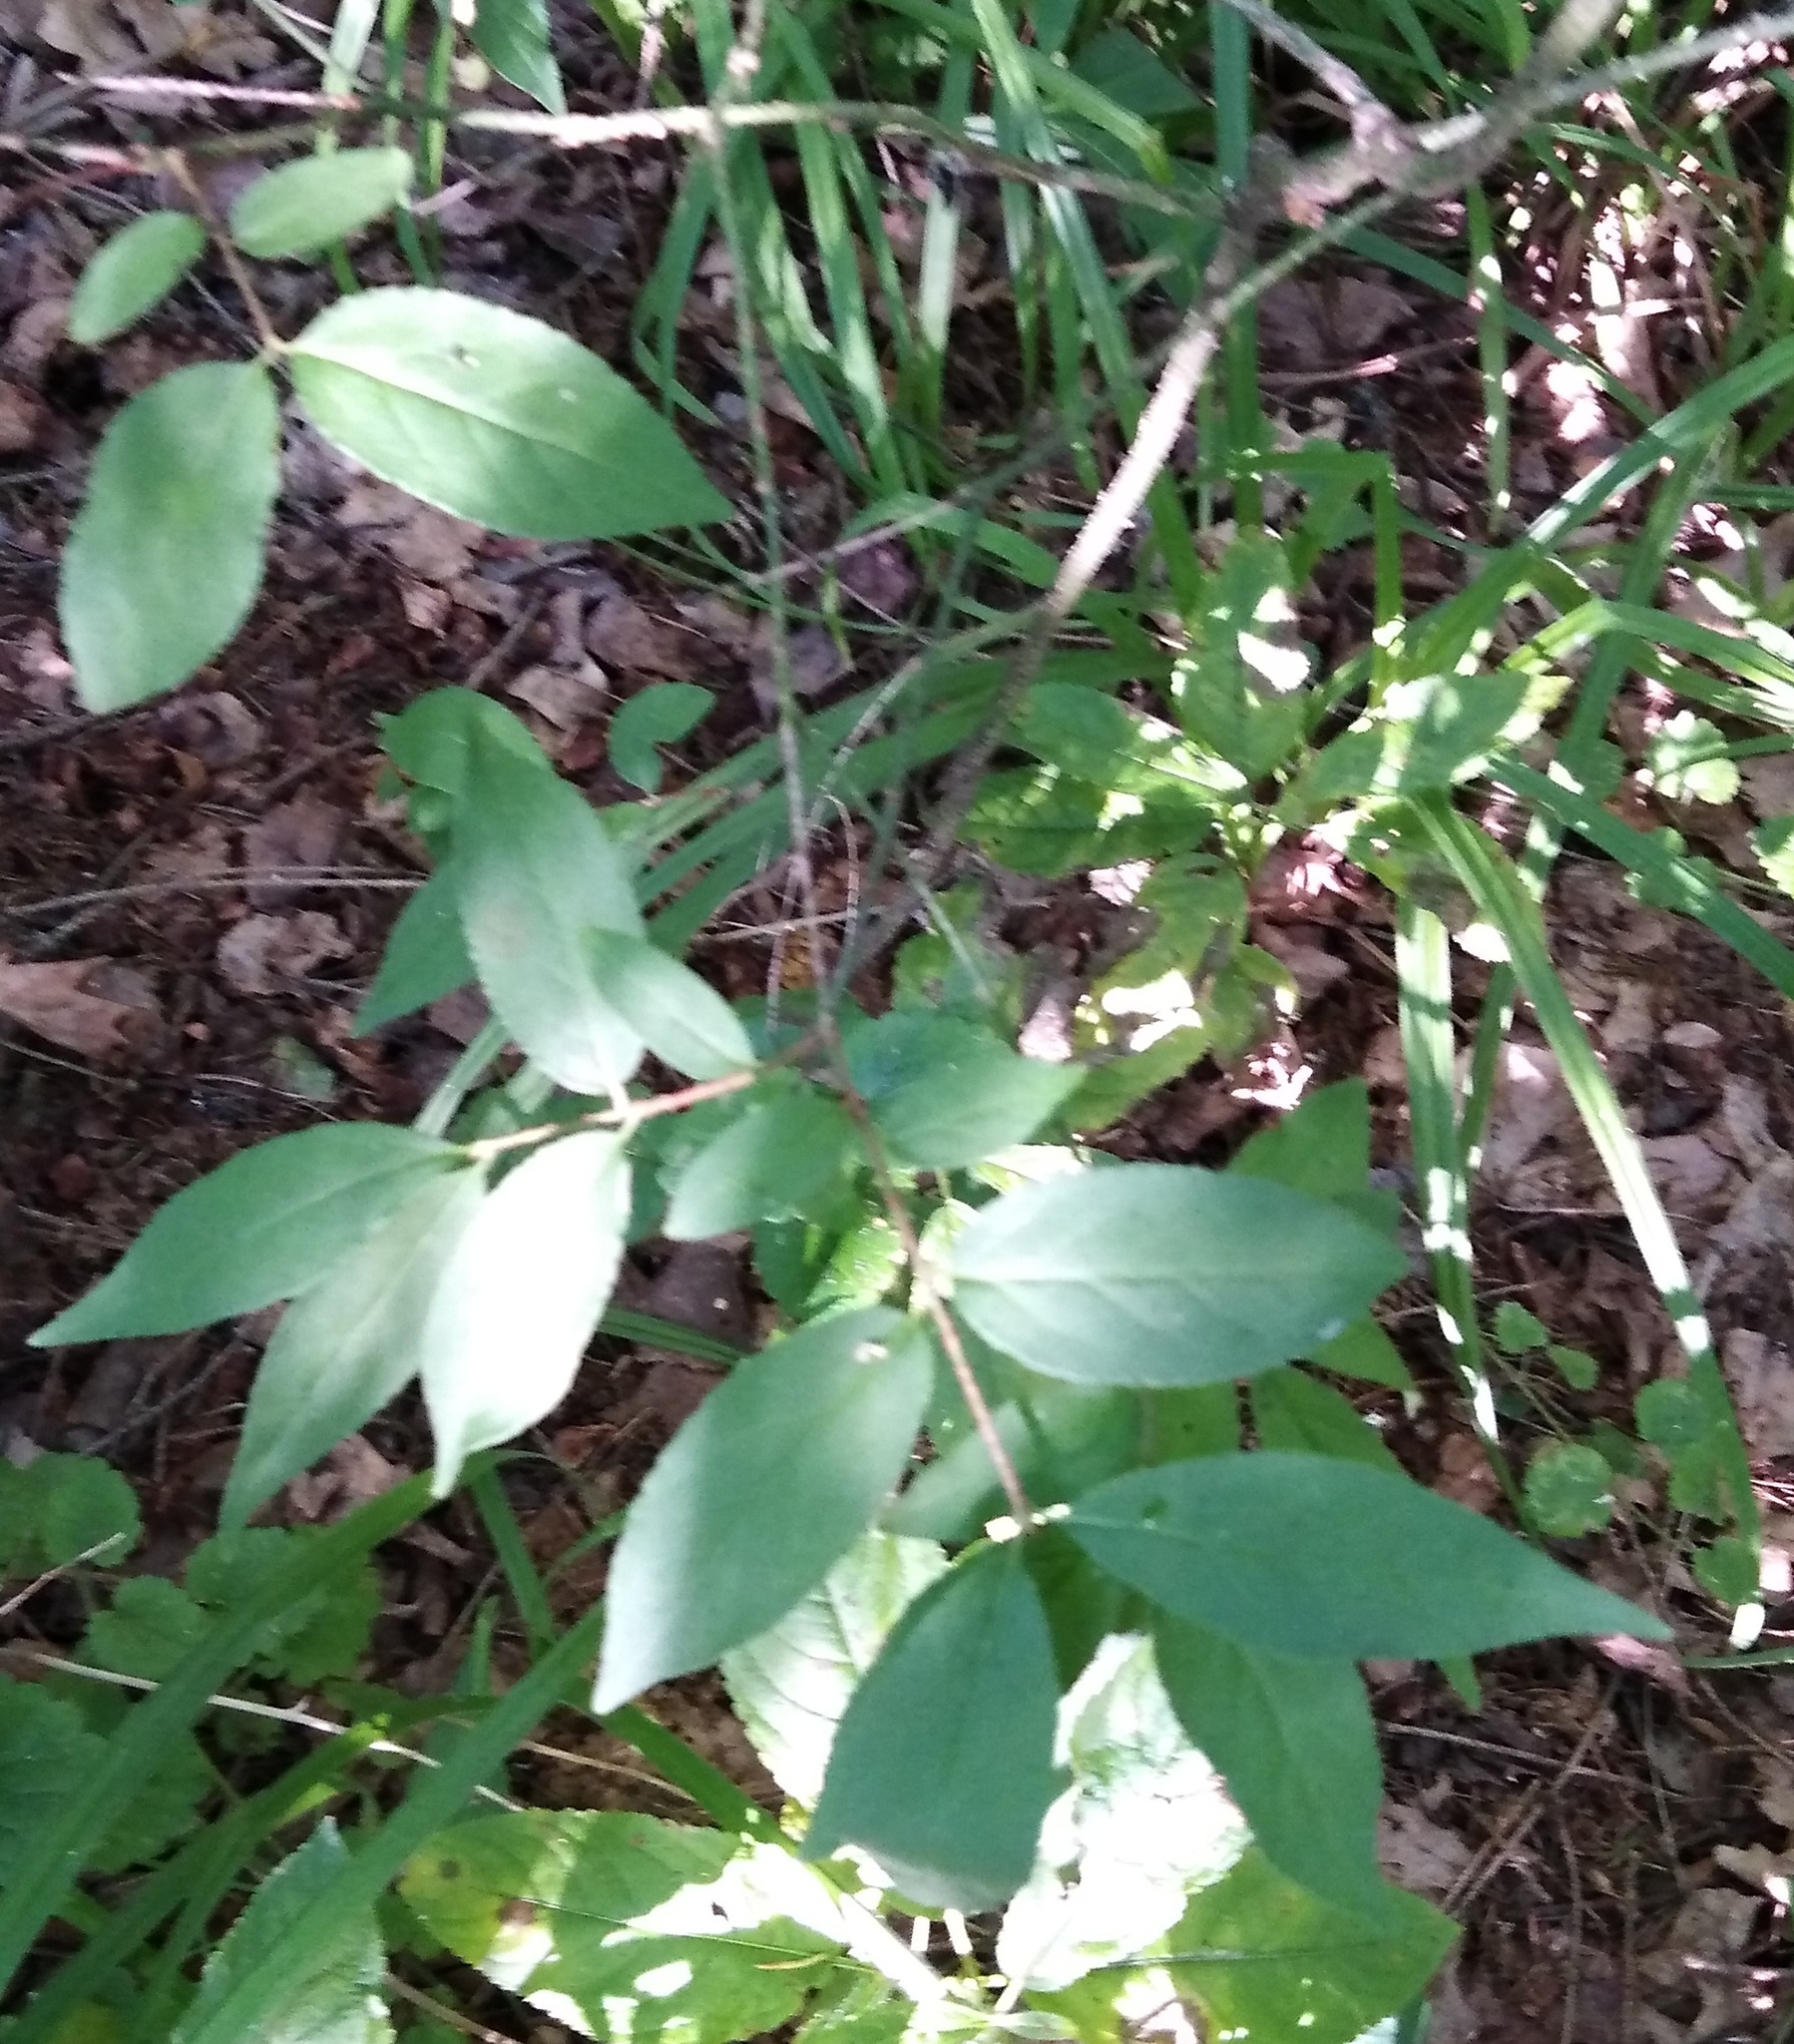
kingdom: Plantae
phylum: Tracheophyta
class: Magnoliopsida
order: Celastrales
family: Celastraceae
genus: Euonymus
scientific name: Euonymus verrucosus
